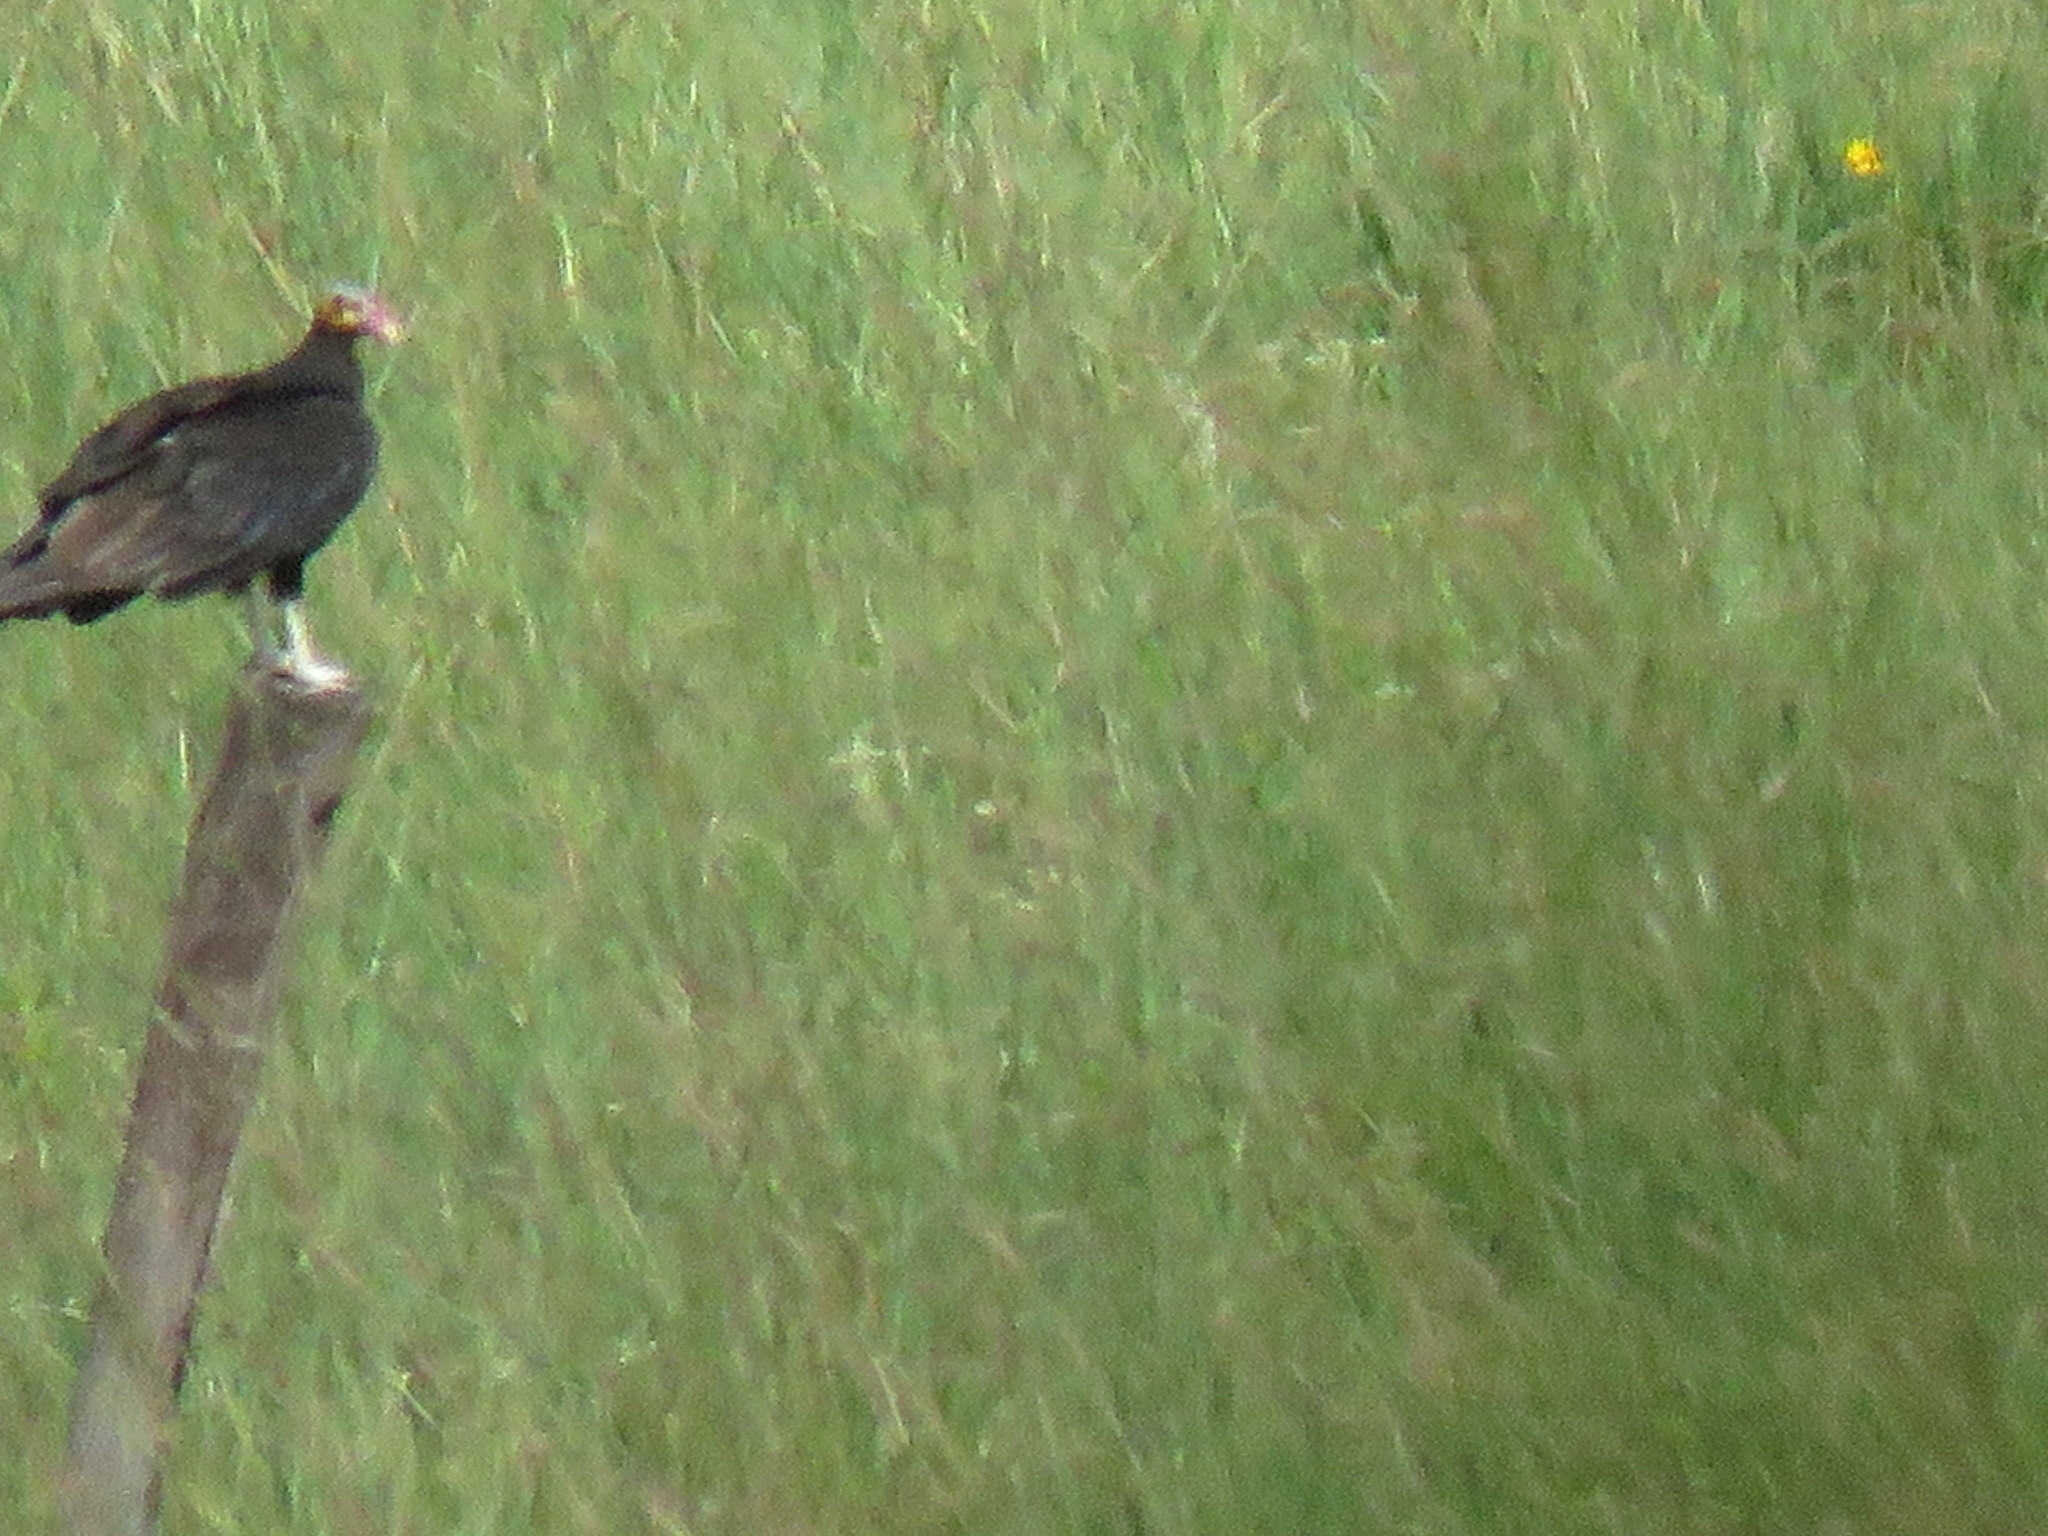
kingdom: Animalia
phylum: Chordata
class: Aves
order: Accipitriformes
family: Cathartidae
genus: Cathartes
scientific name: Cathartes aura
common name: Turkey vulture
